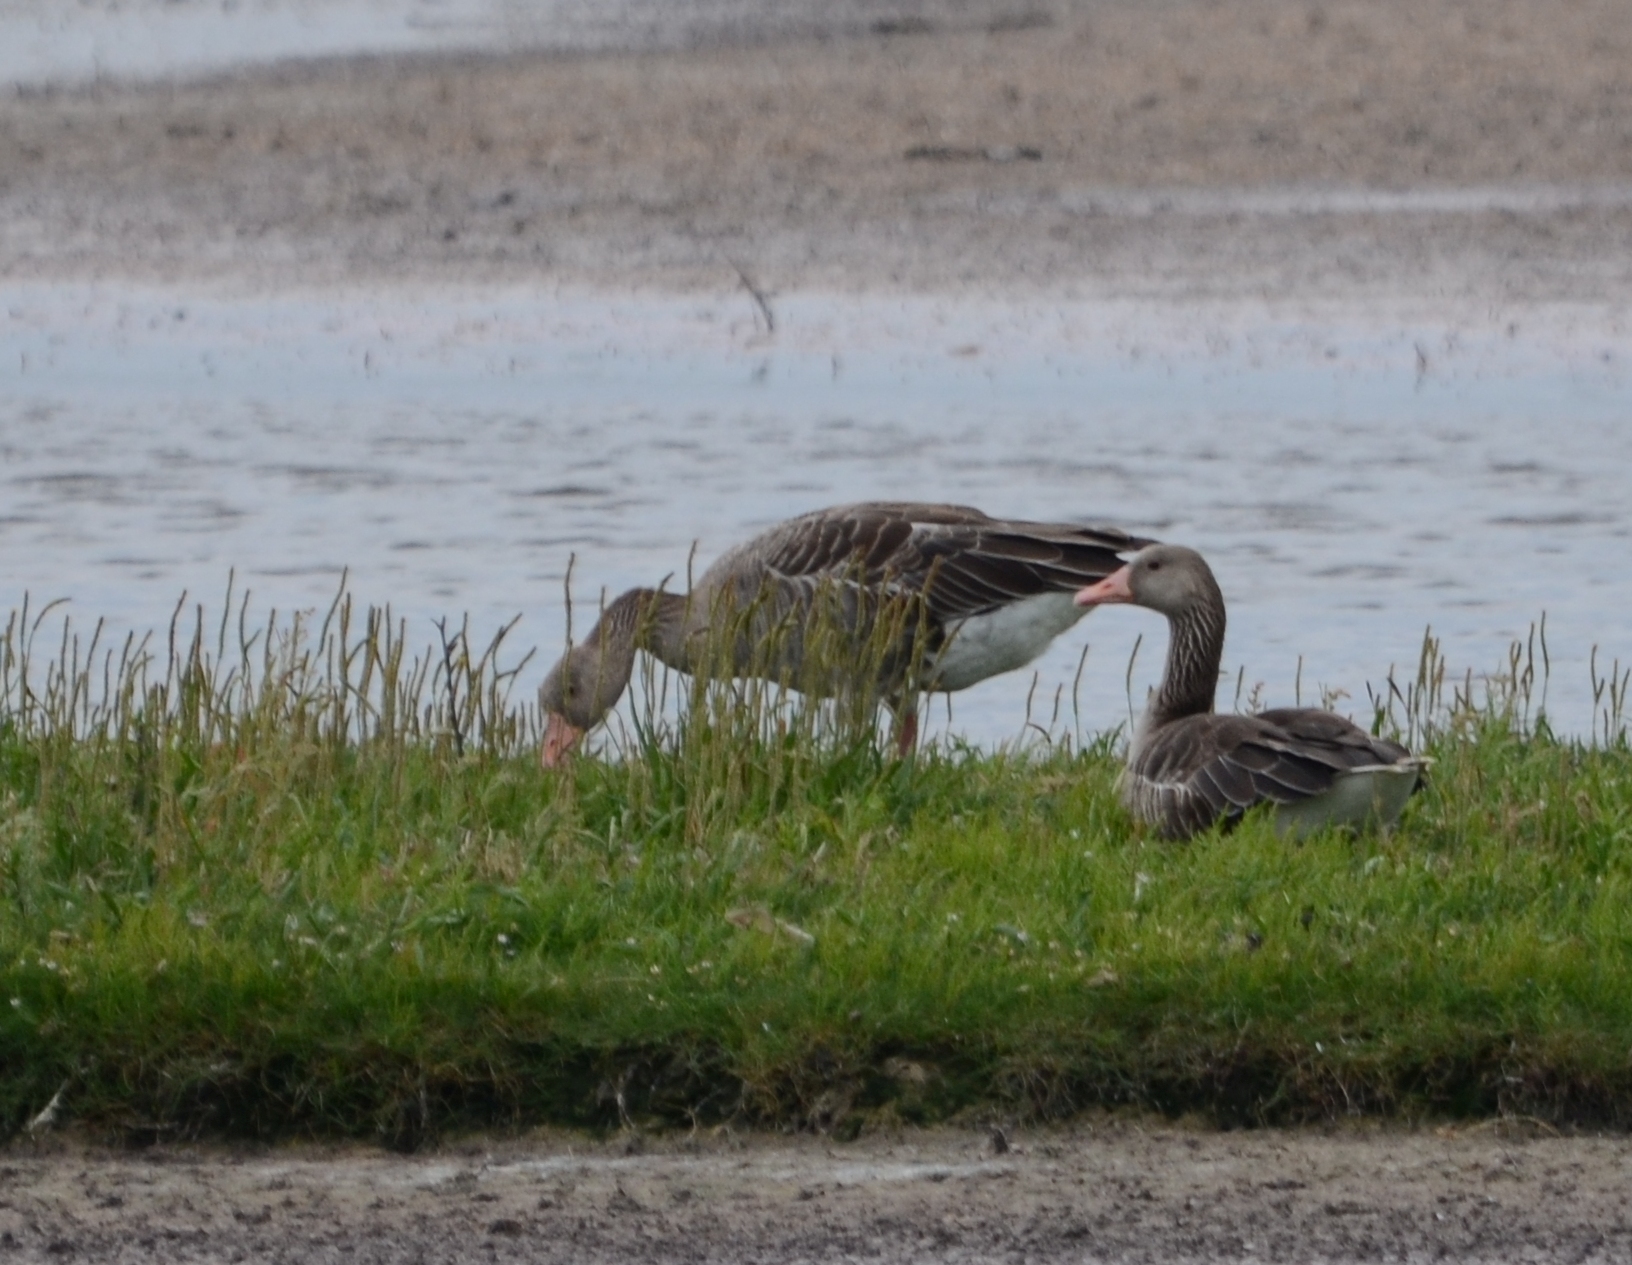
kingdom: Animalia
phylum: Chordata
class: Aves
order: Anseriformes
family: Anatidae
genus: Anser
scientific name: Anser anser
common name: Greylag goose
